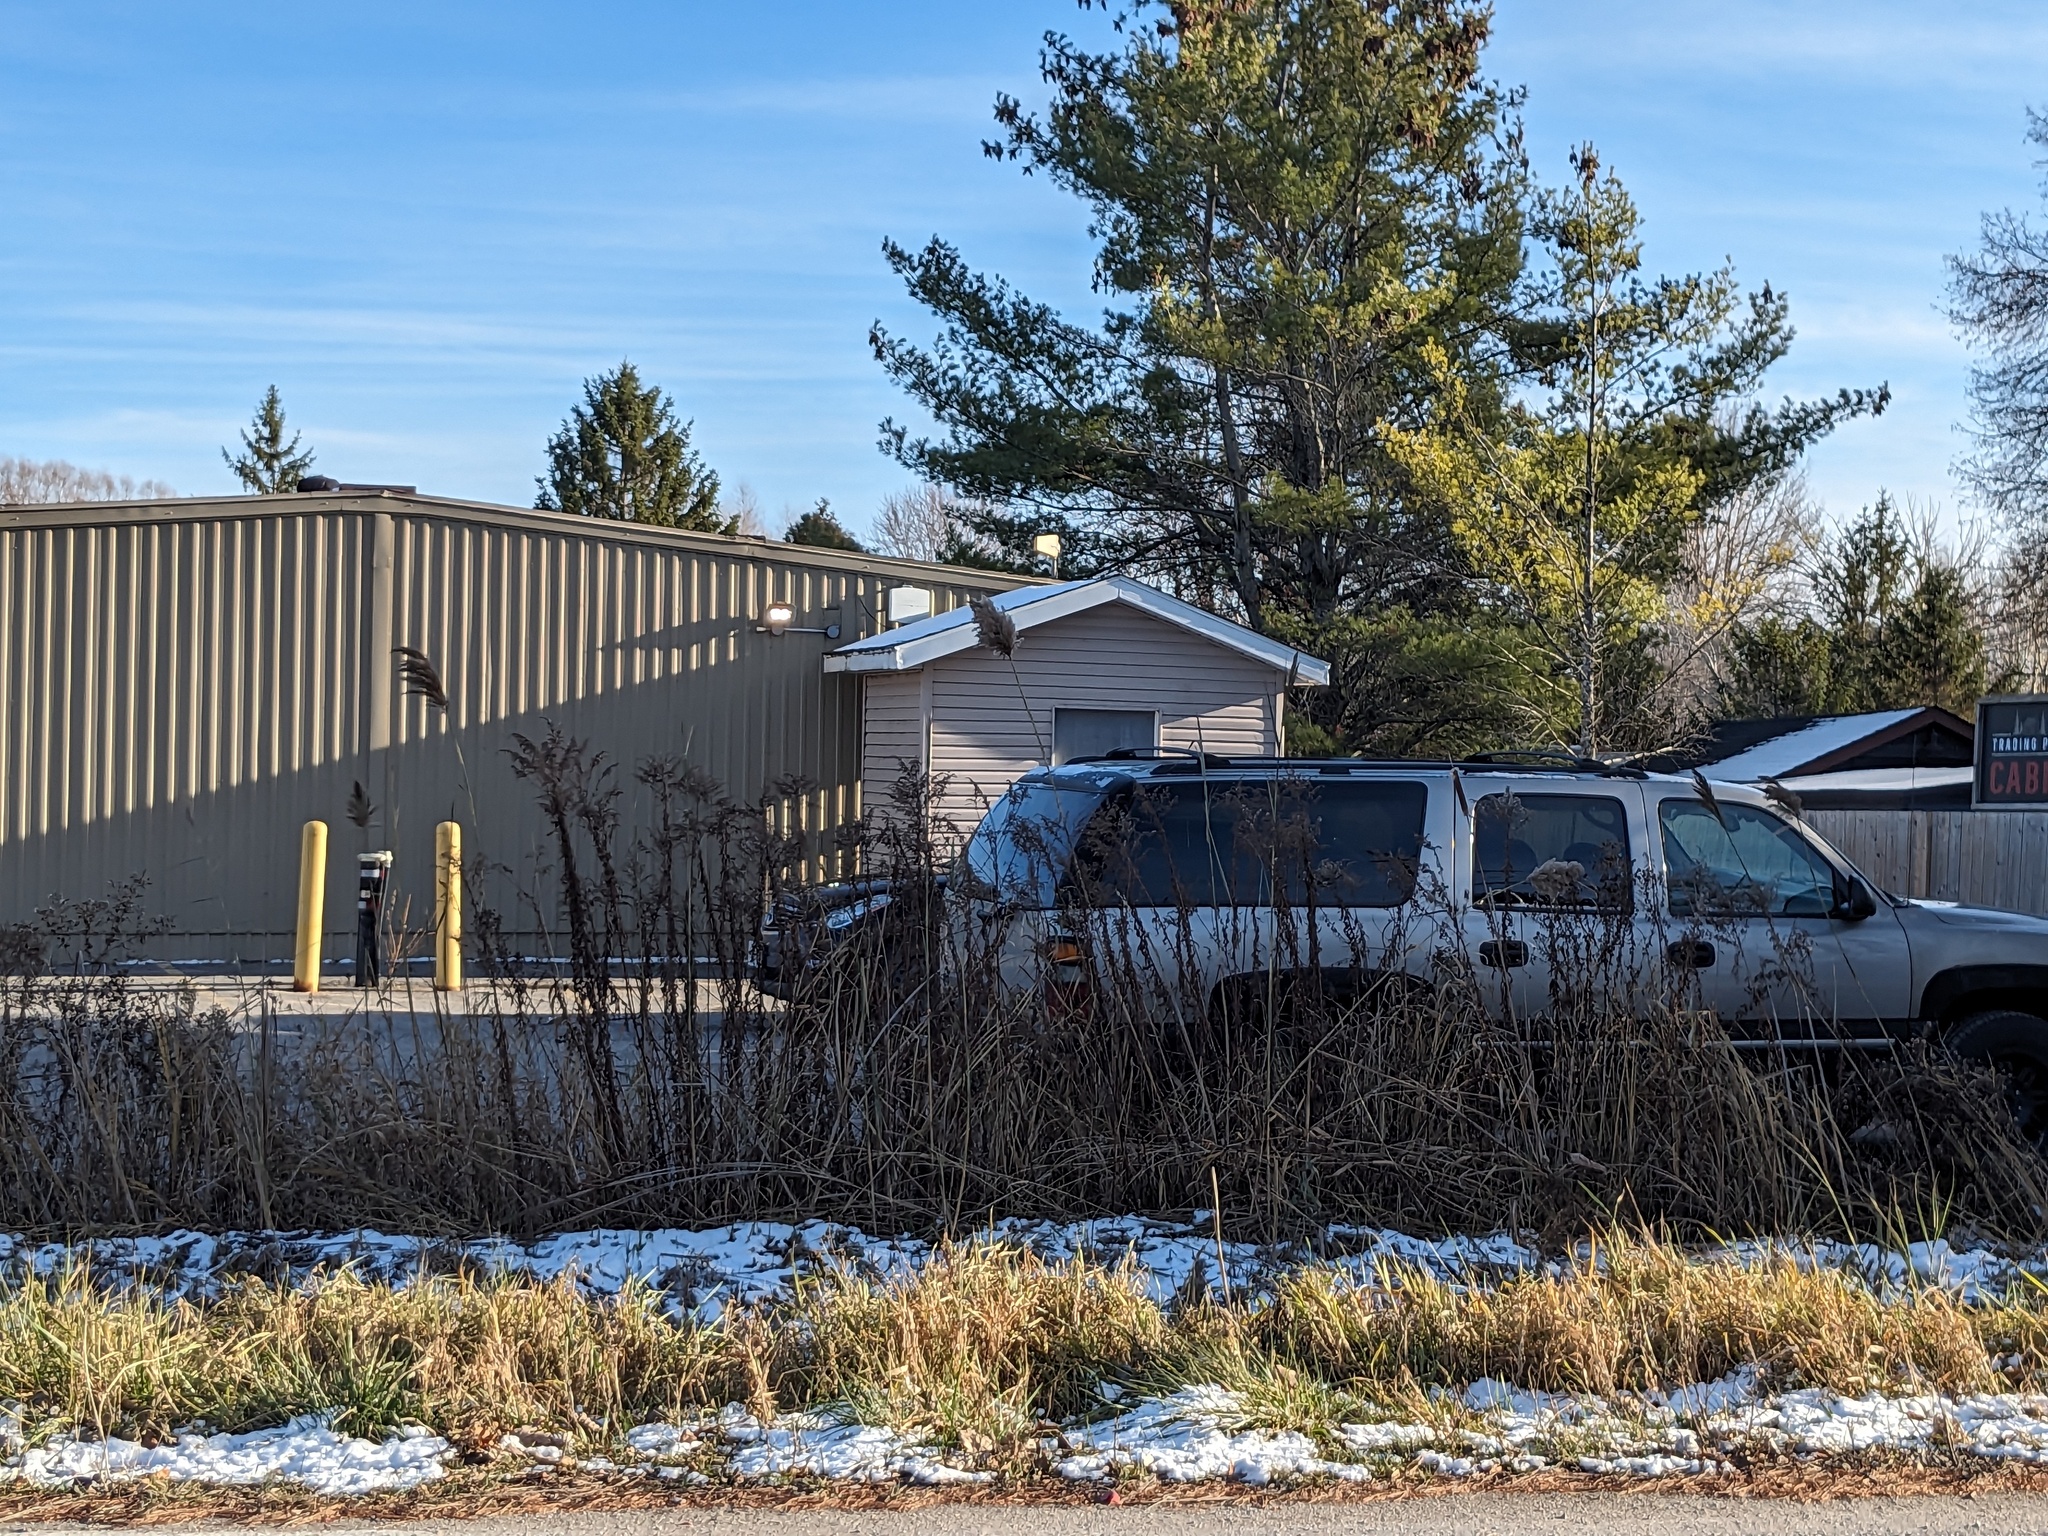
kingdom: Plantae
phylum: Tracheophyta
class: Liliopsida
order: Poales
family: Poaceae
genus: Phragmites
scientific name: Phragmites australis
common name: Common reed
